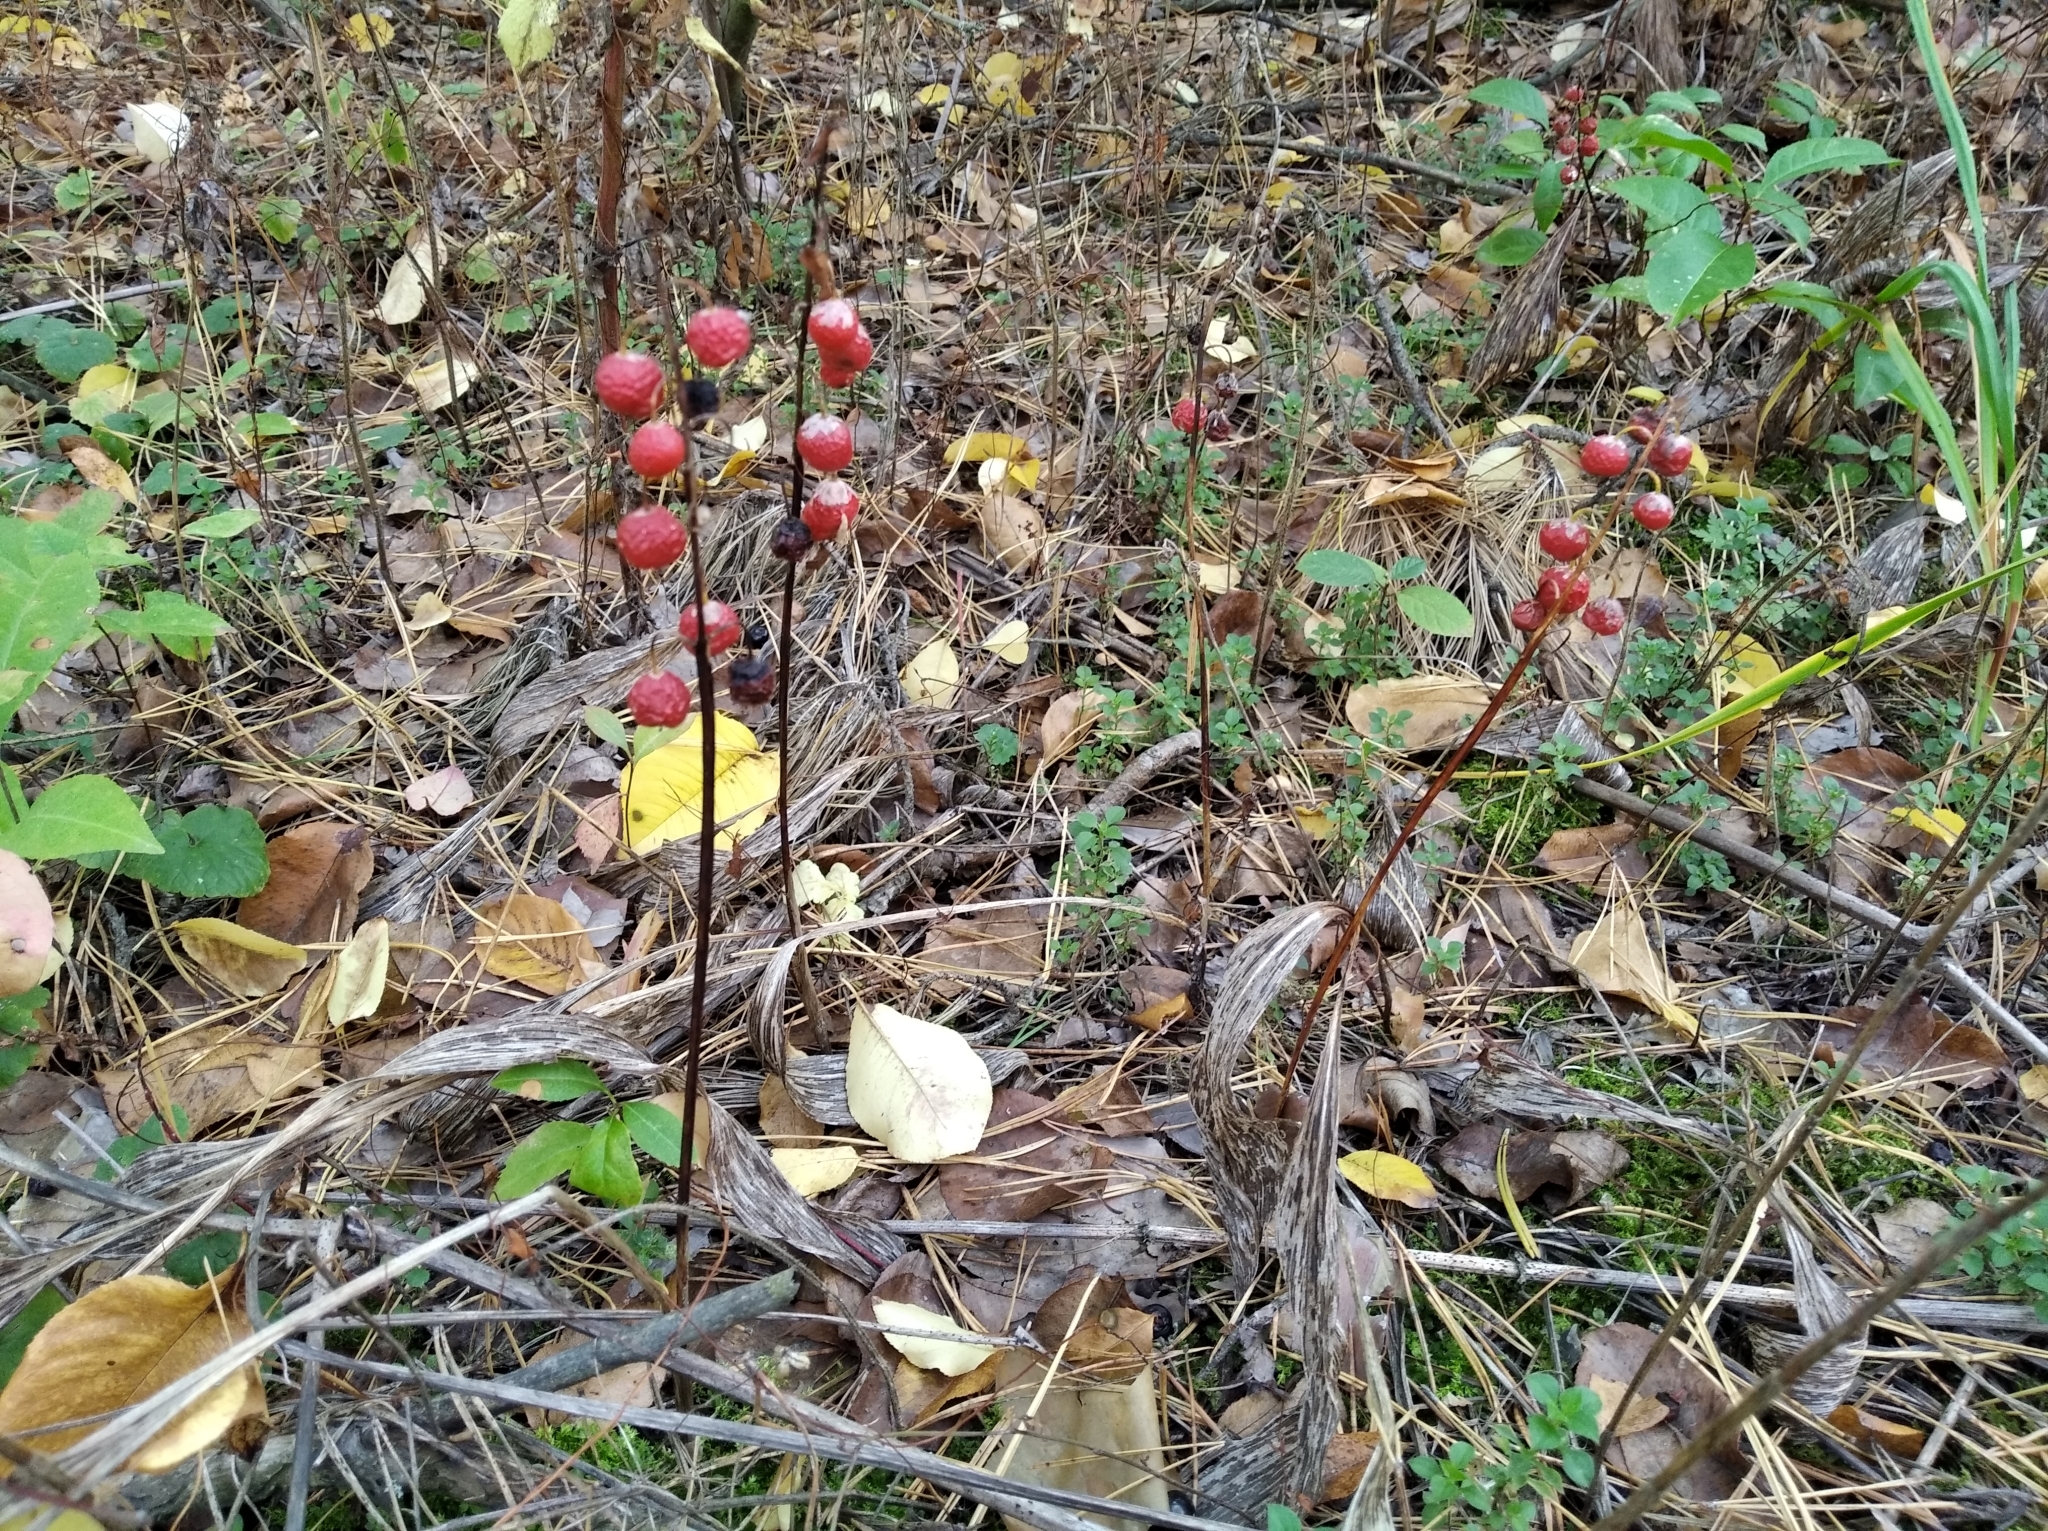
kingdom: Plantae
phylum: Tracheophyta
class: Liliopsida
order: Asparagales
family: Asparagaceae
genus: Convallaria
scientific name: Convallaria majalis
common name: Lily-of-the-valley
